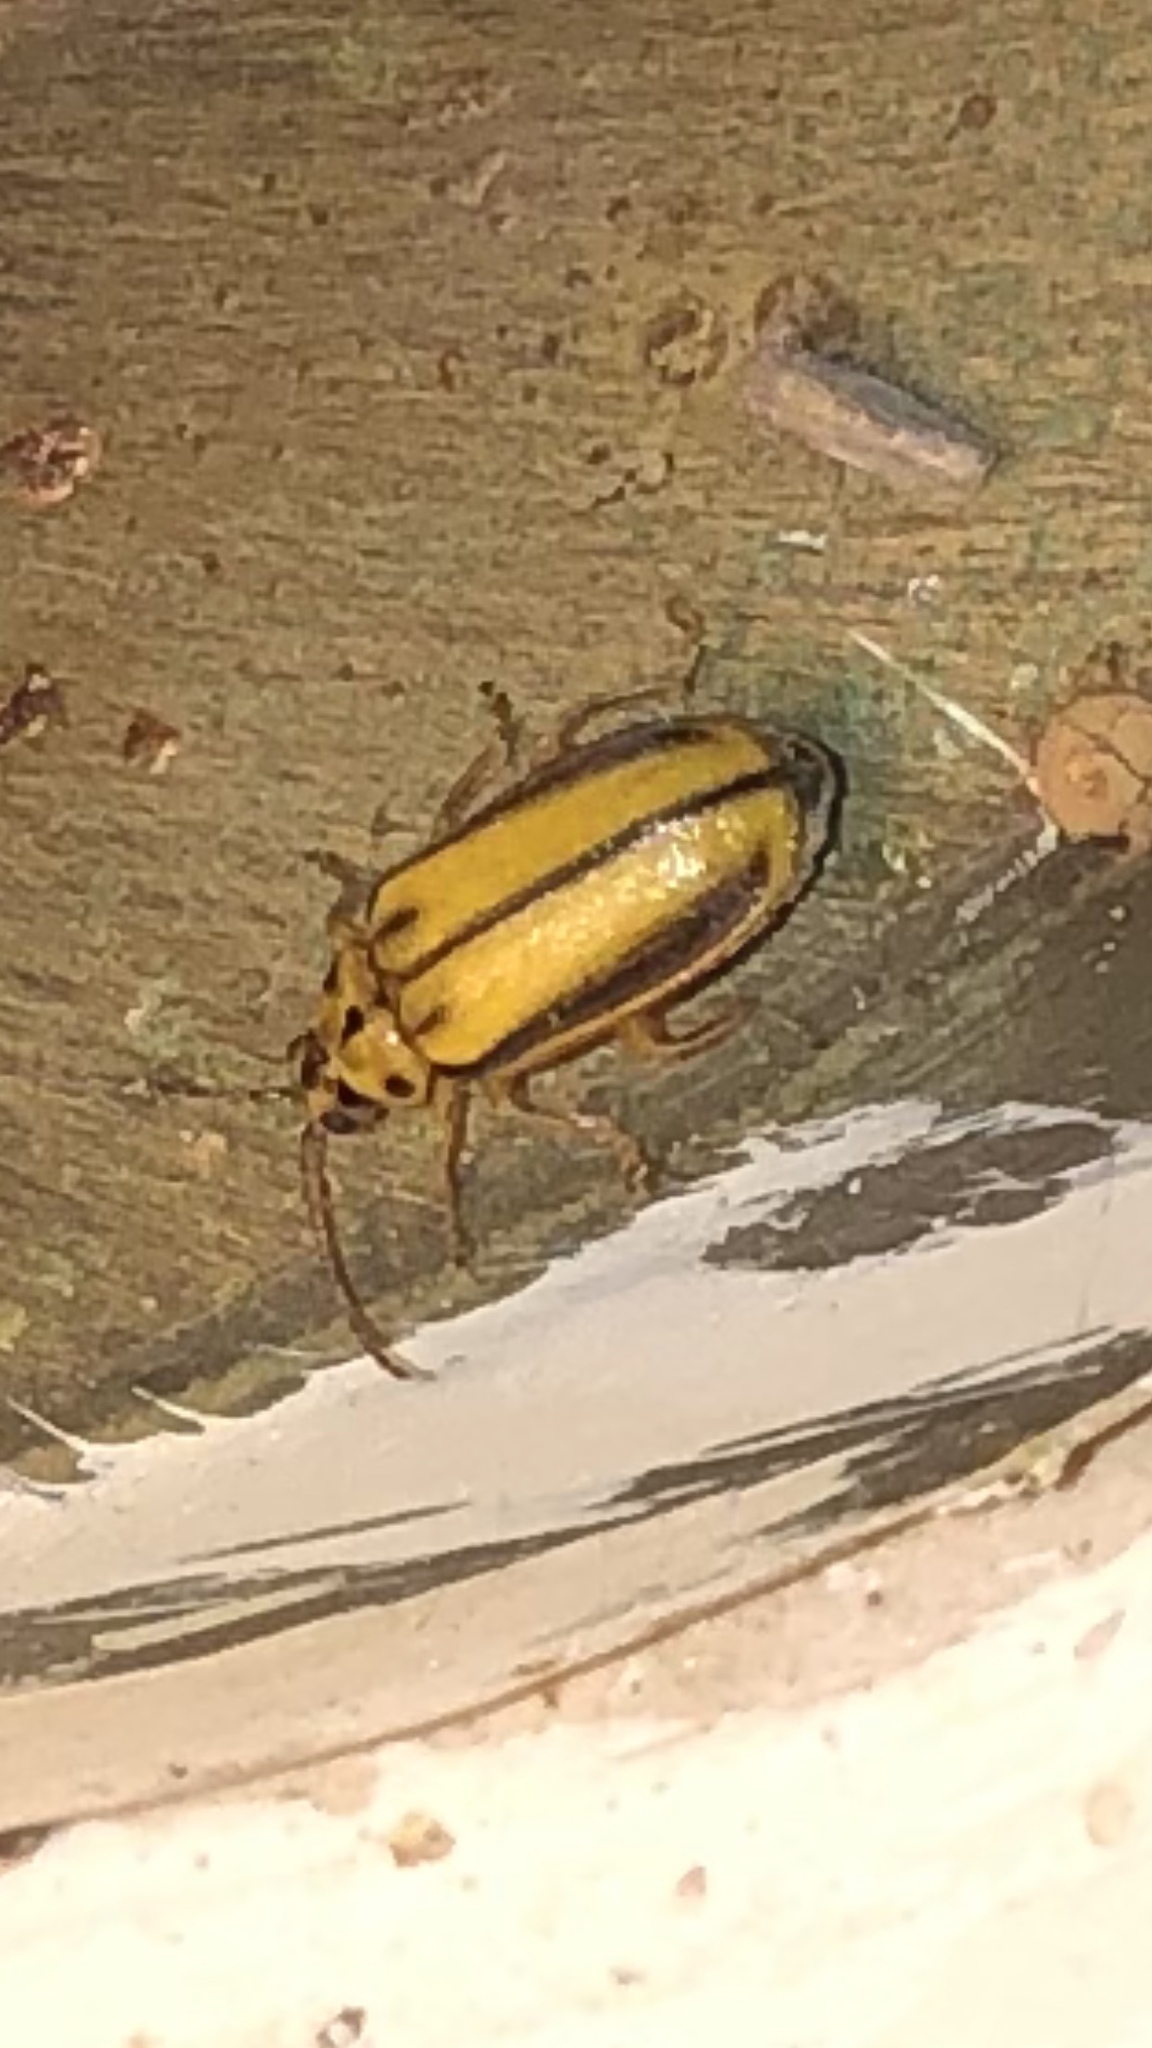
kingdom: Animalia
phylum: Arthropoda
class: Insecta
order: Coleoptera
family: Chrysomelidae
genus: Xanthogaleruca
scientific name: Xanthogaleruca luteola
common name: Elm leaf beetle
